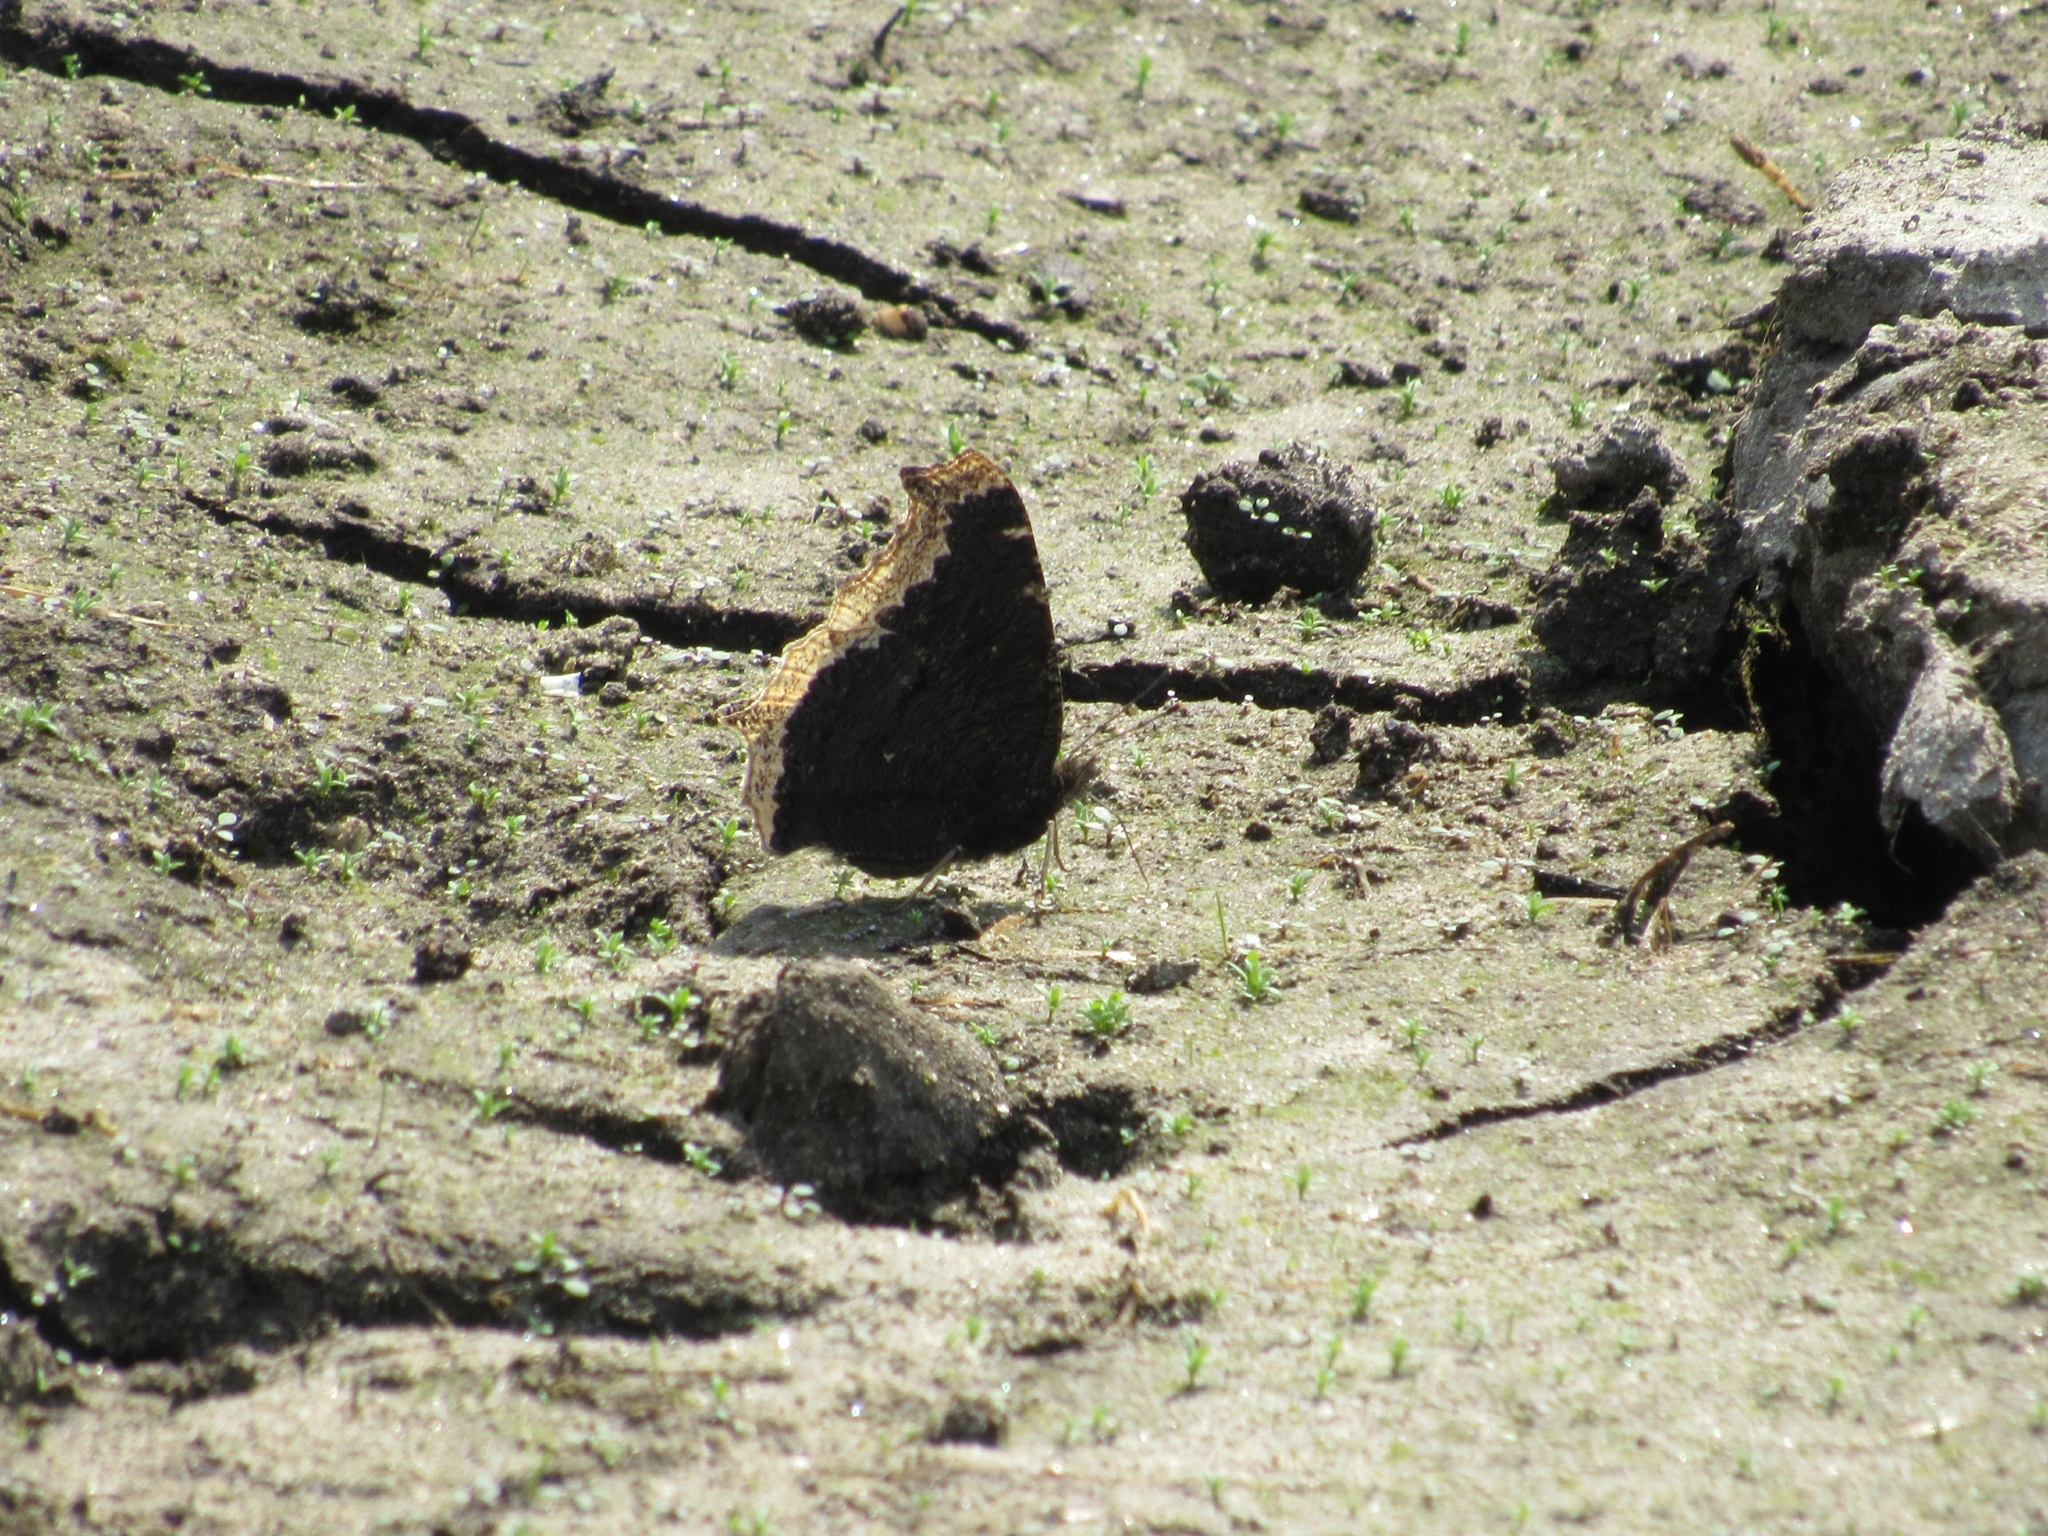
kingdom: Animalia
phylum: Arthropoda
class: Insecta
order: Lepidoptera
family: Nymphalidae
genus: Nymphalis
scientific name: Nymphalis antiopa
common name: Camberwell beauty
